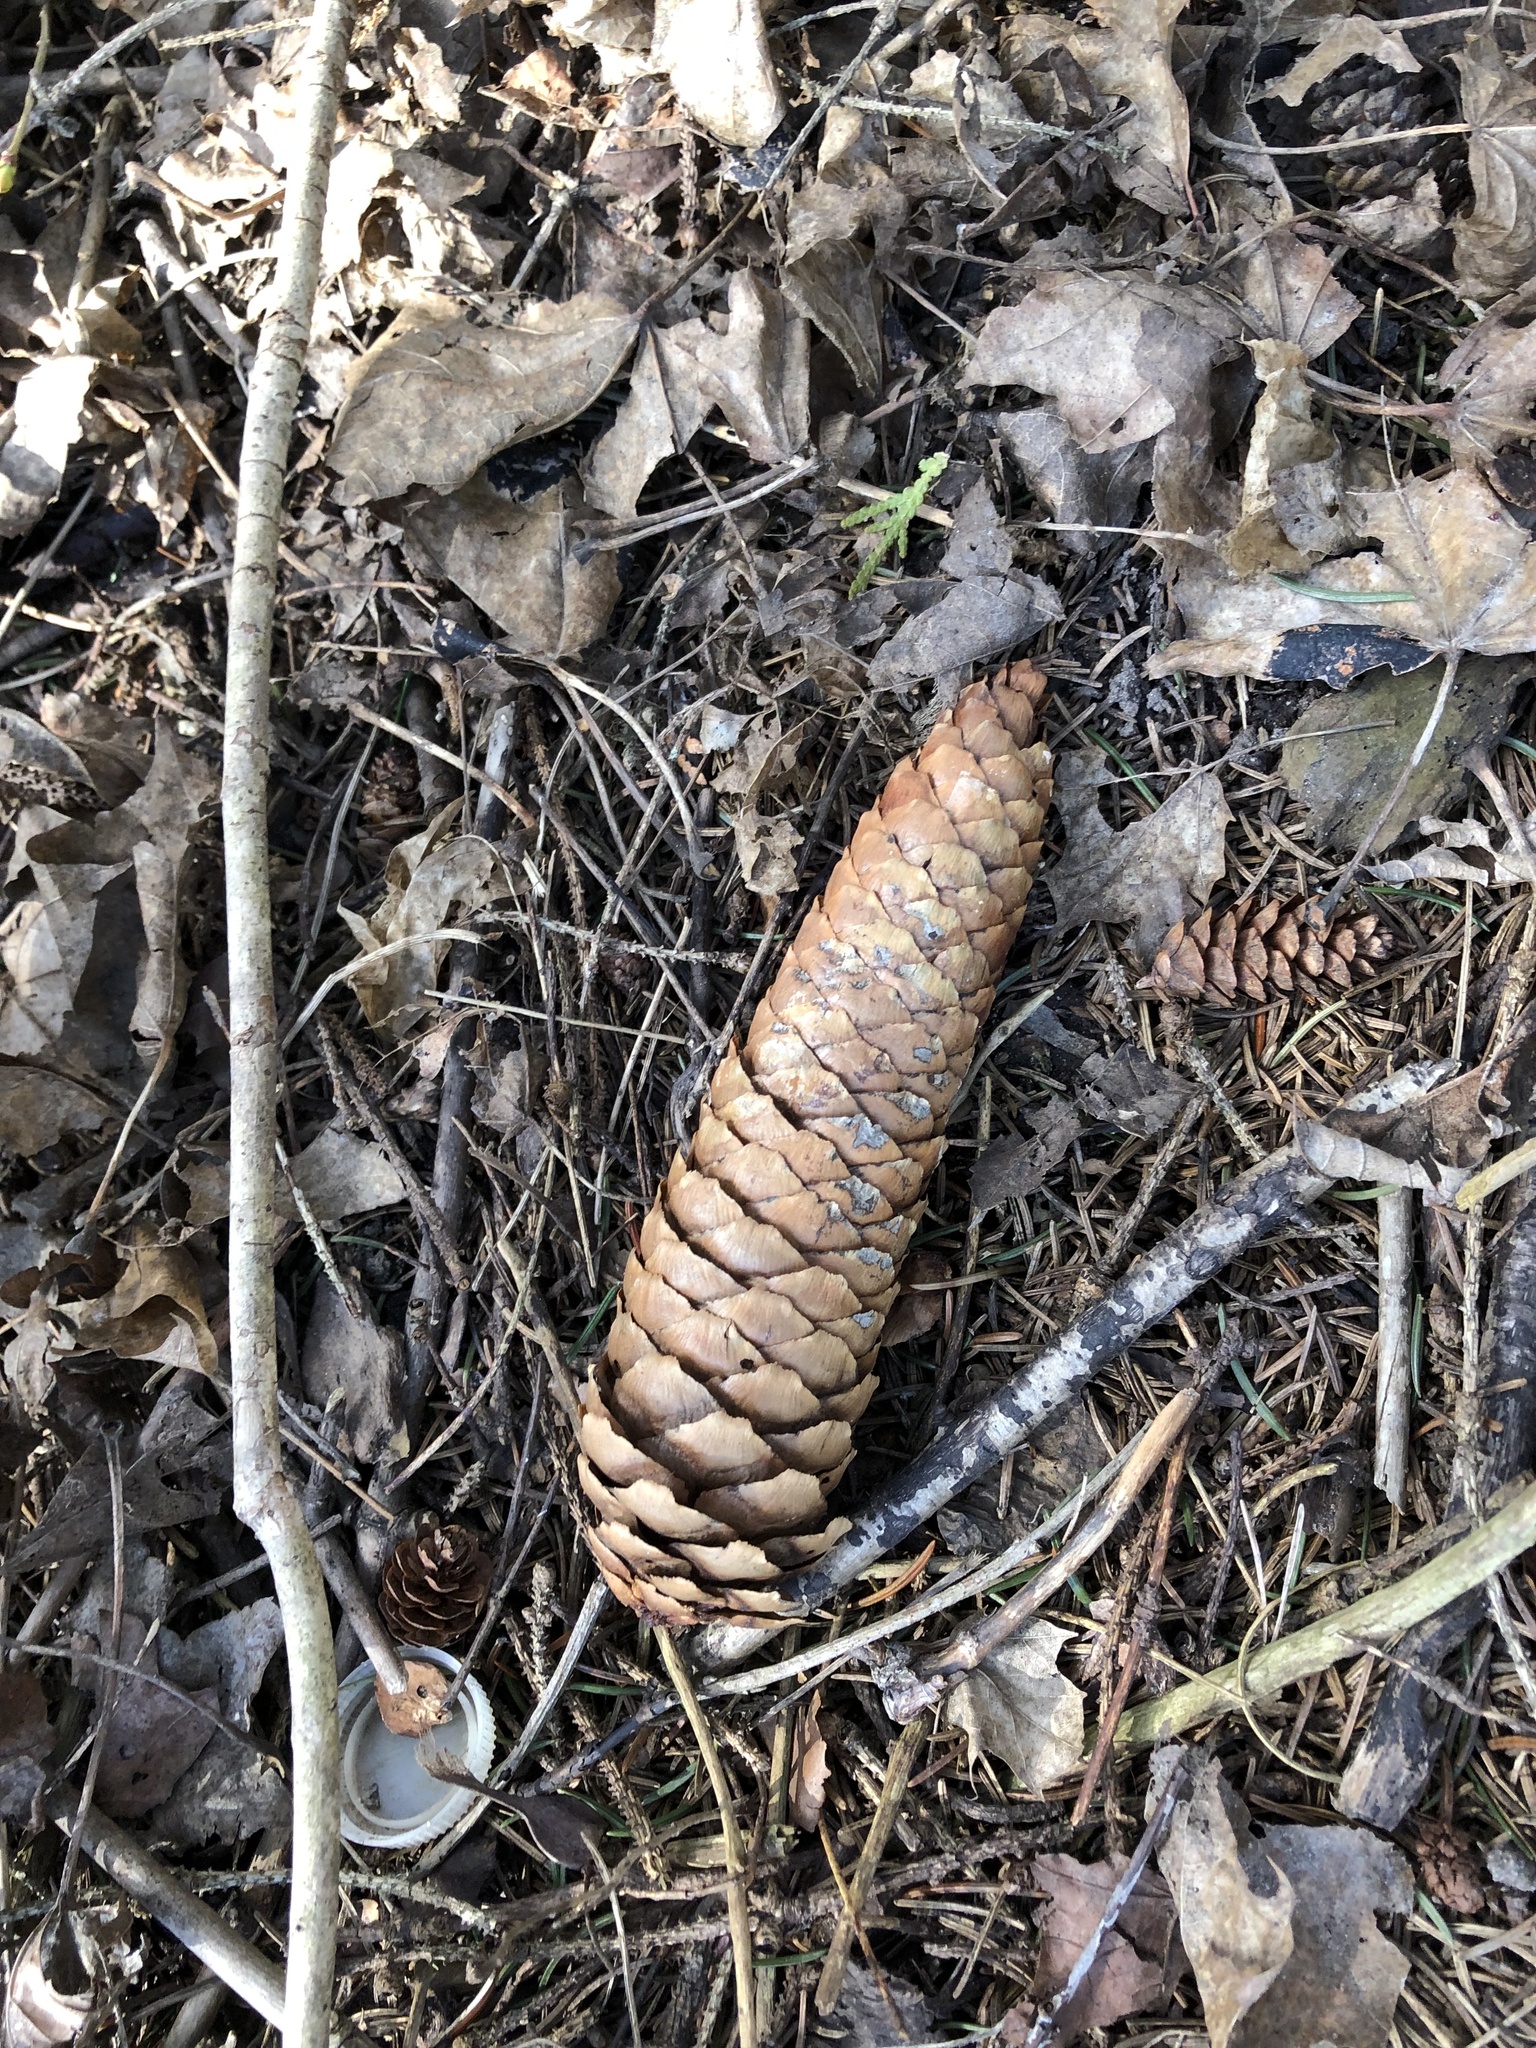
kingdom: Plantae
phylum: Tracheophyta
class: Pinopsida
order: Pinales
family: Pinaceae
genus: Picea
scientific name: Picea abies
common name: Norway spruce
